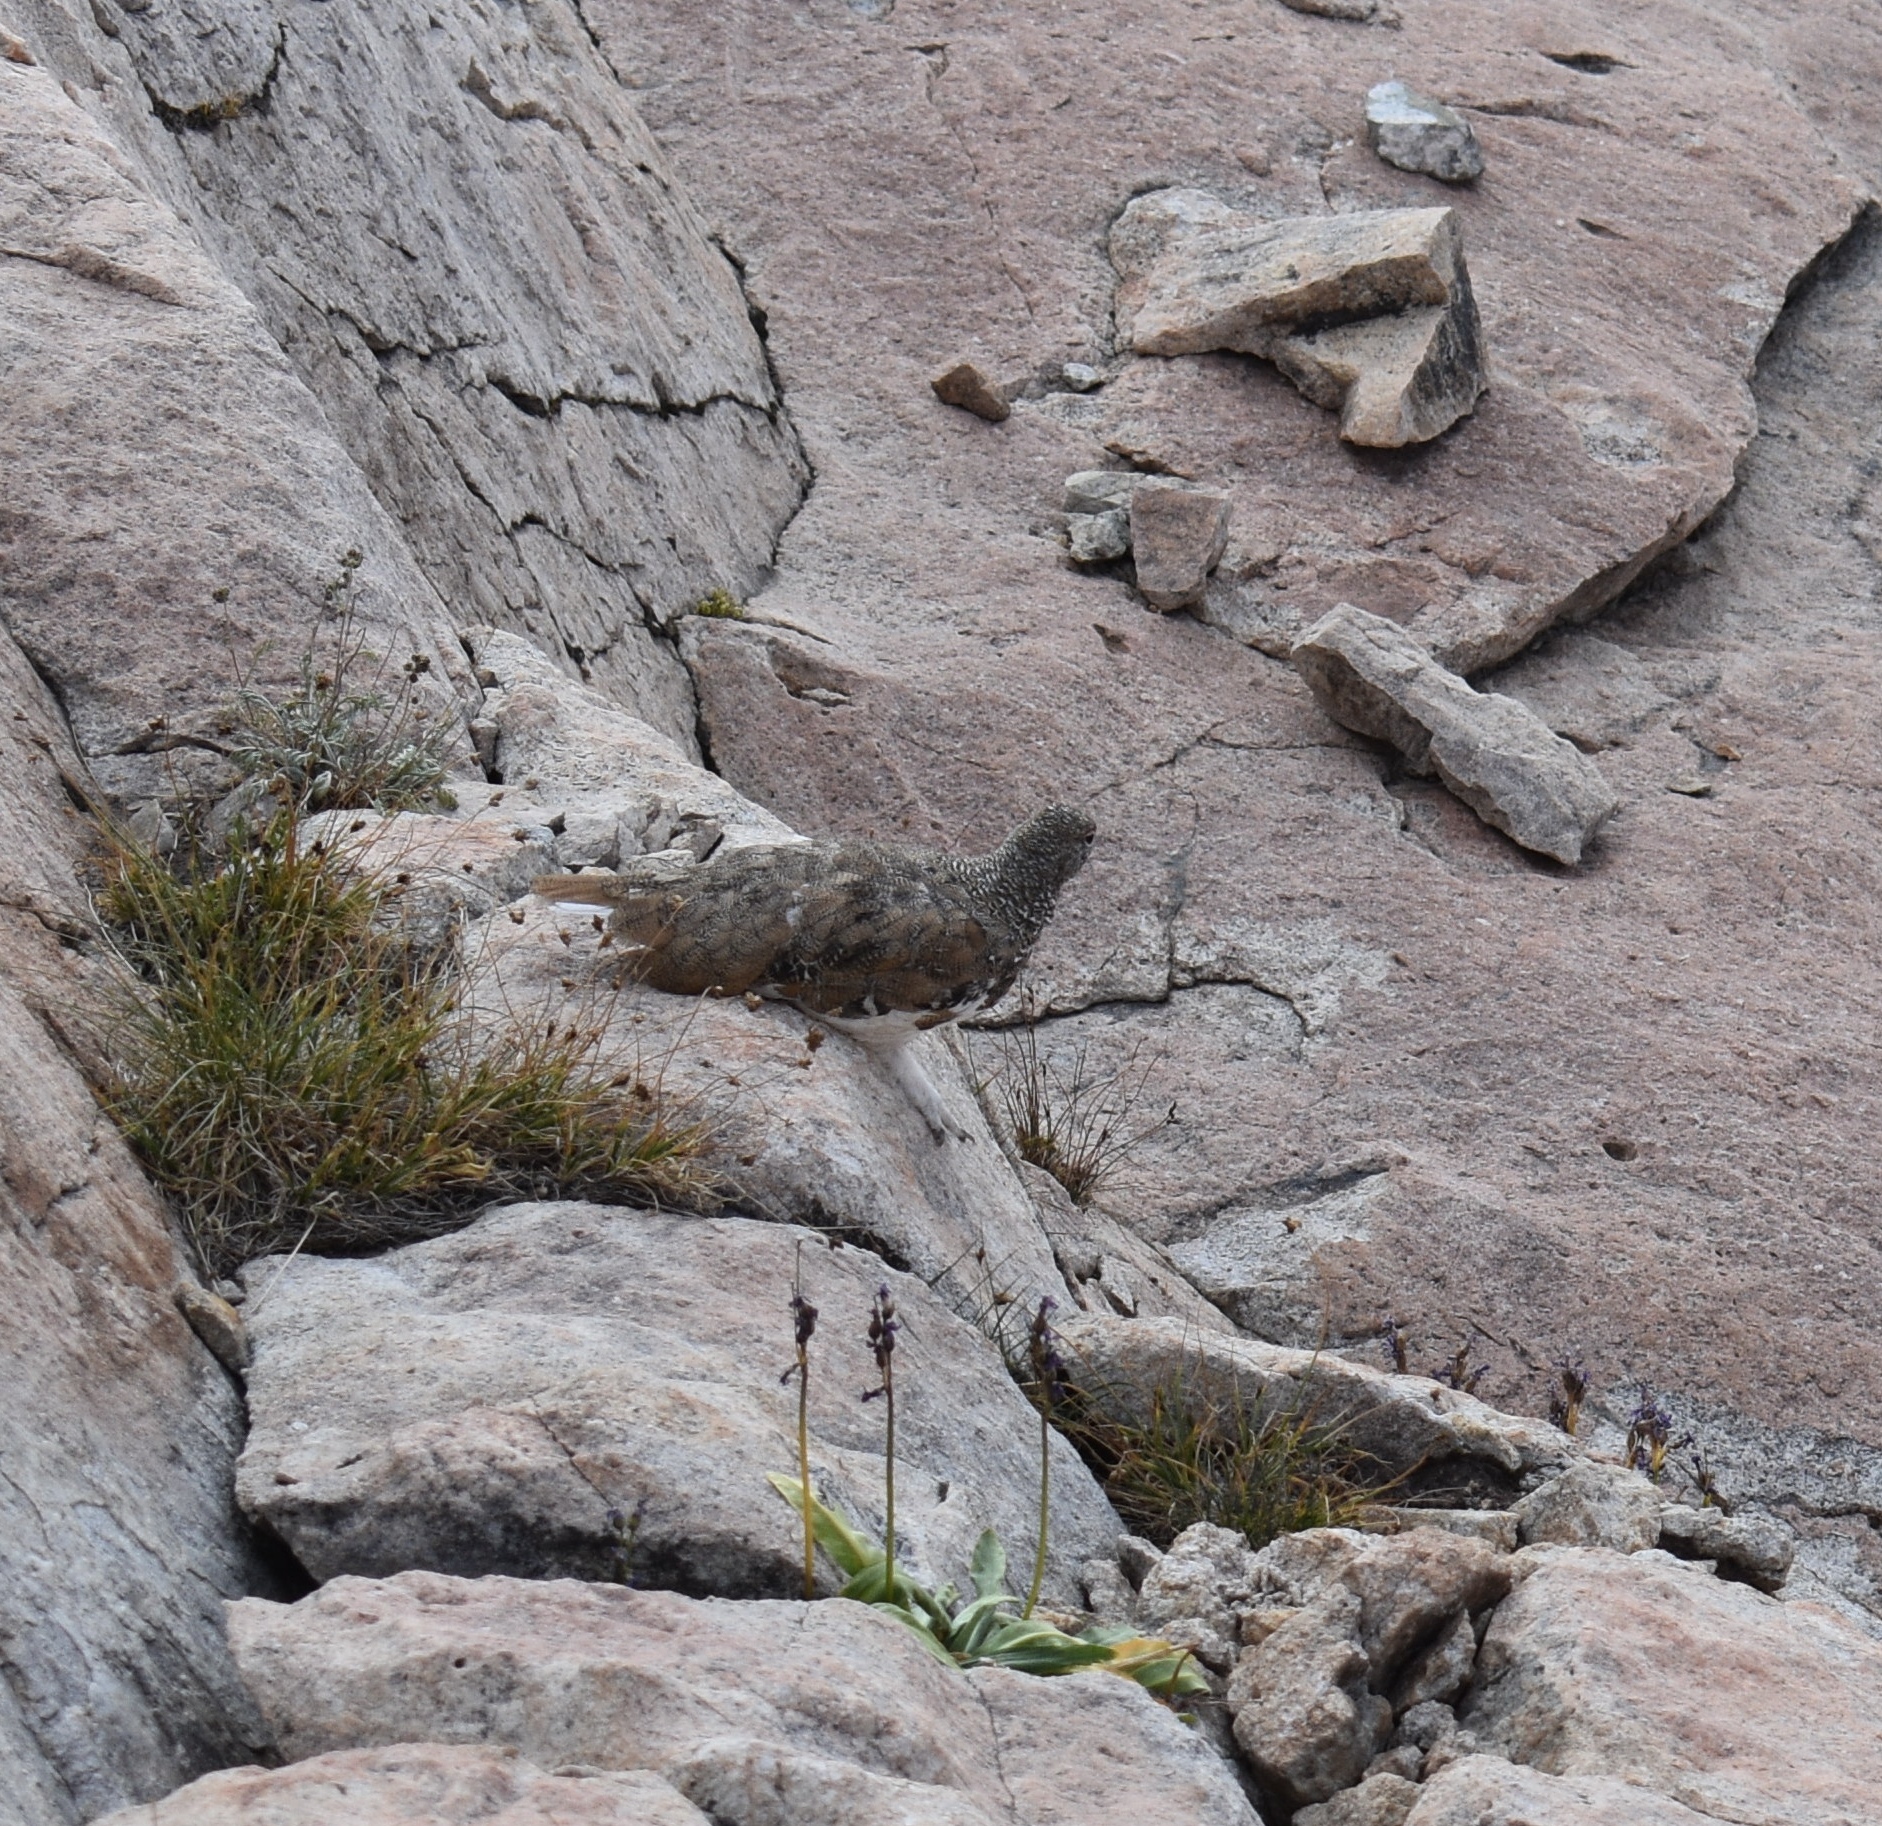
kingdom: Animalia
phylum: Chordata
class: Aves
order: Galliformes
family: Phasianidae
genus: Lagopus
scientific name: Lagopus leucura
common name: White-tailed ptarmigan
